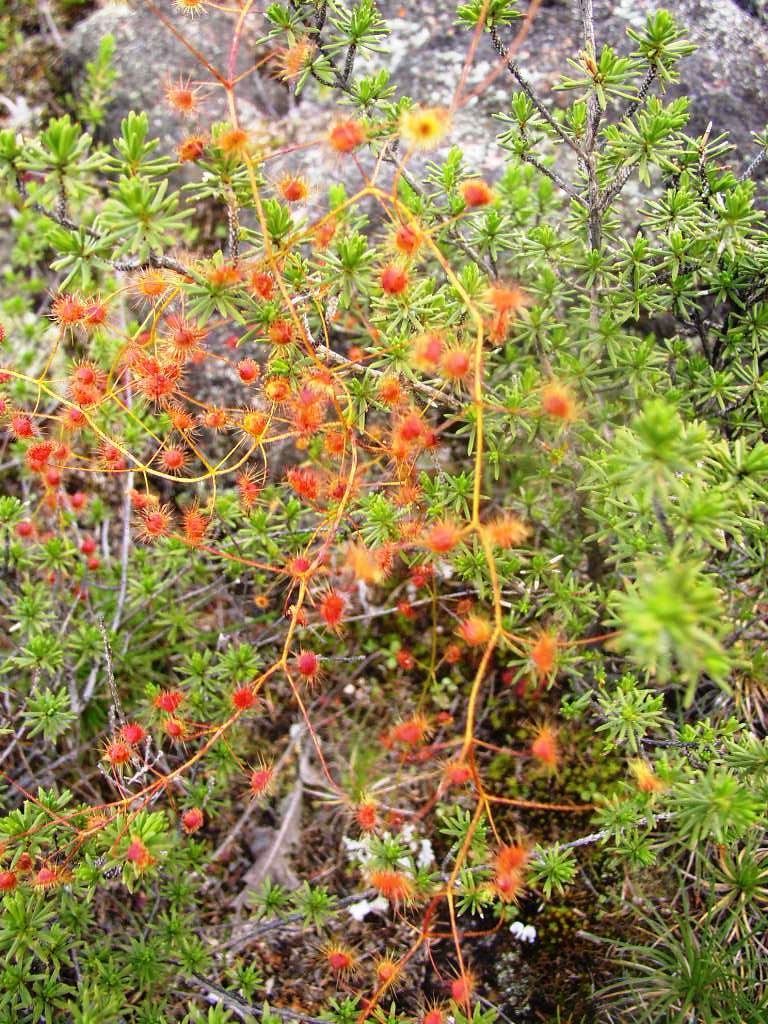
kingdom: Plantae
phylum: Tracheophyta
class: Magnoliopsida
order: Caryophyllales
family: Droseraceae
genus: Drosera
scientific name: Drosera macrantha
